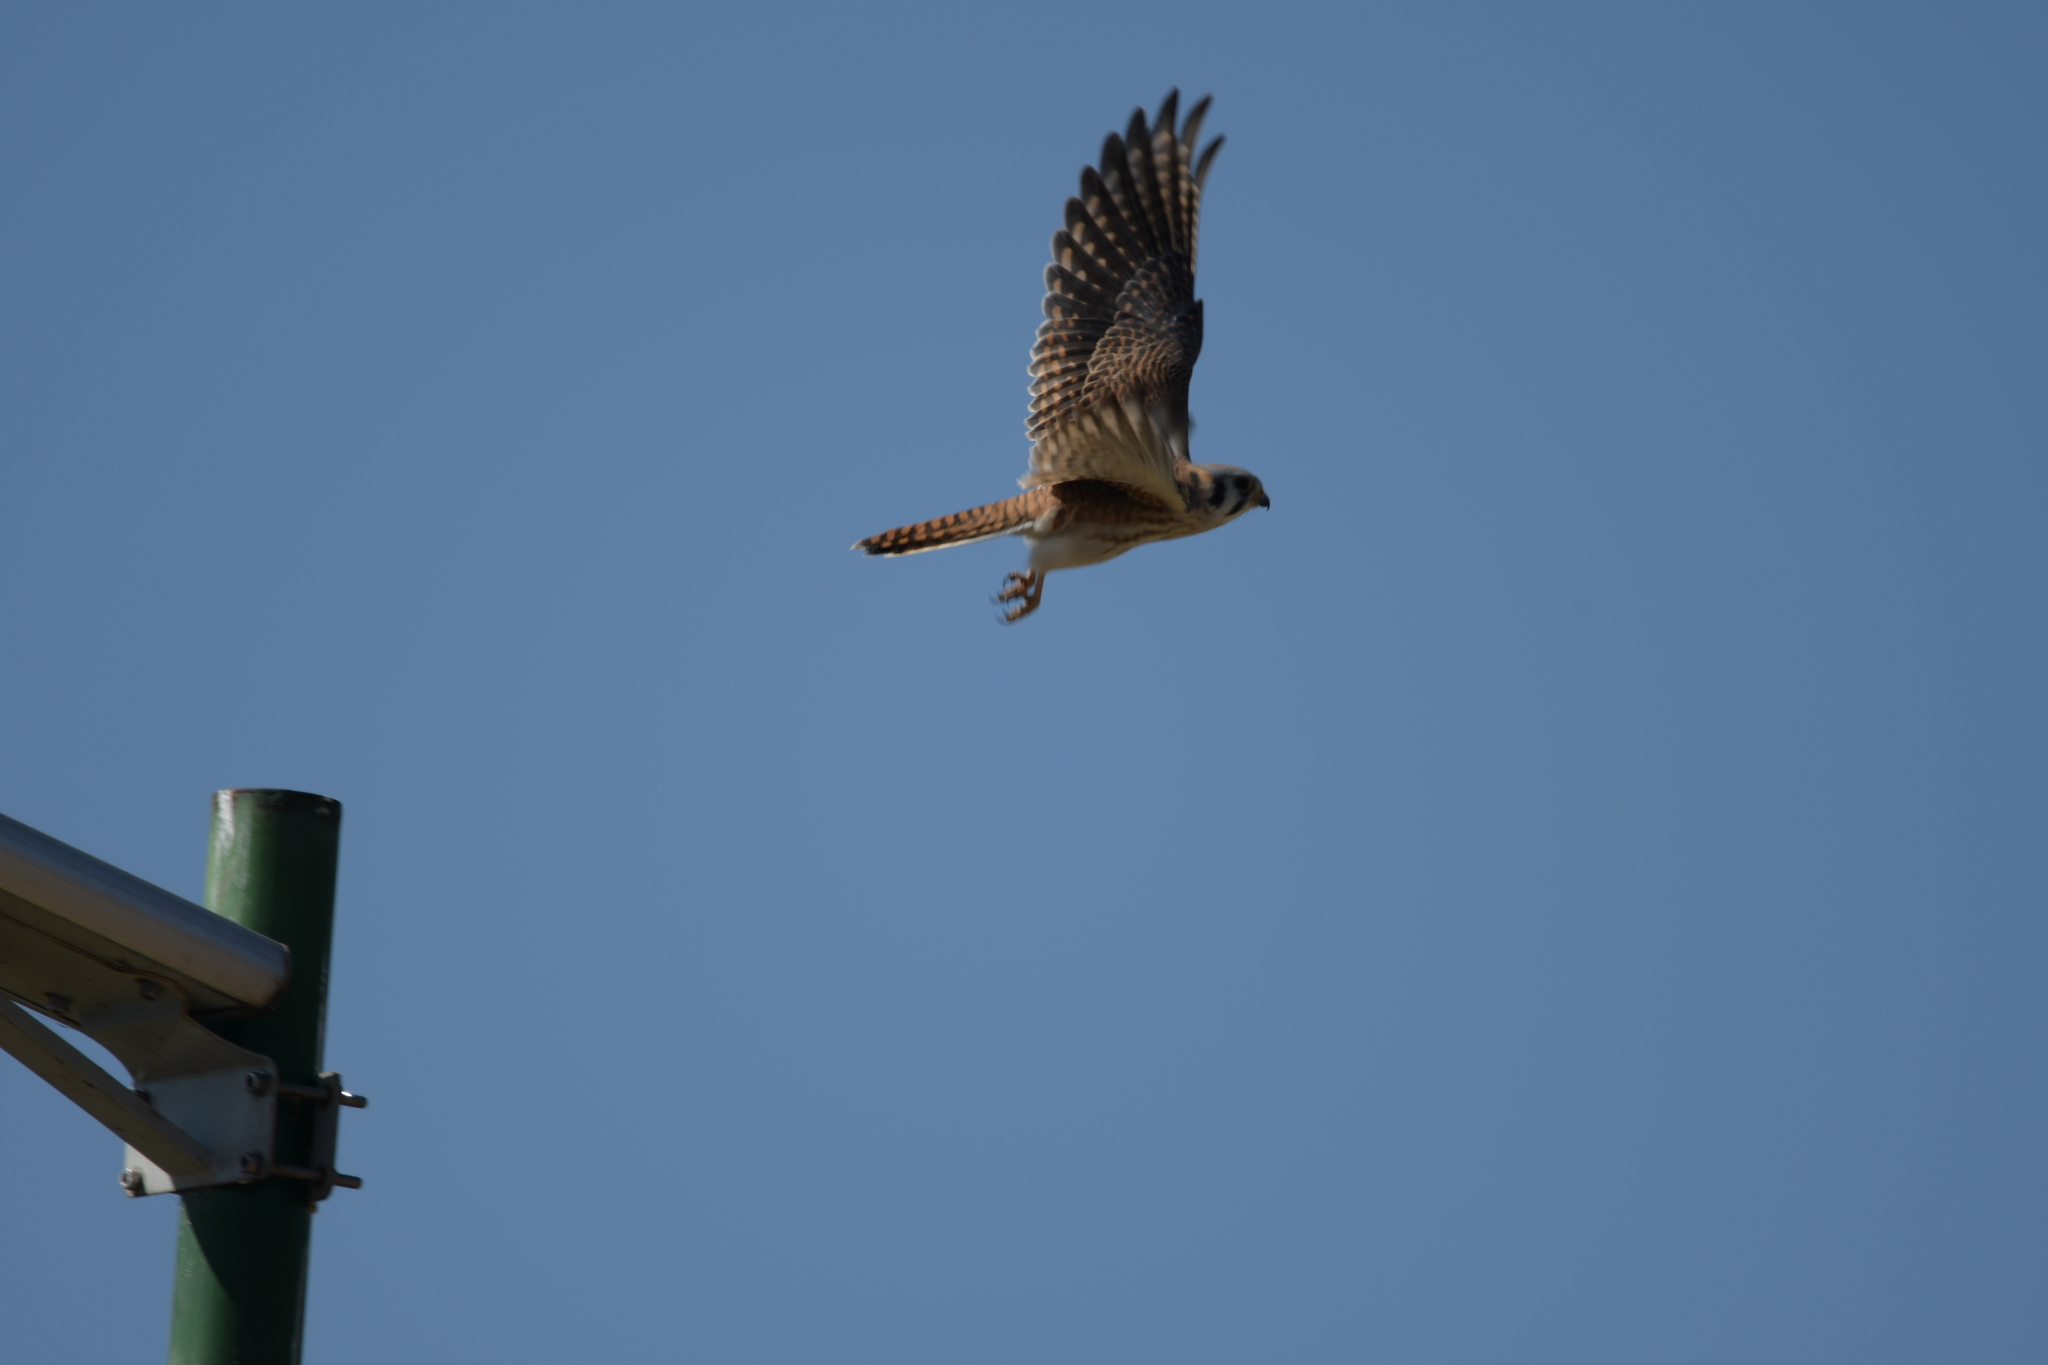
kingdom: Animalia
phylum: Chordata
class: Aves
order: Falconiformes
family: Falconidae
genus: Falco
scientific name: Falco sparverius
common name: American kestrel
